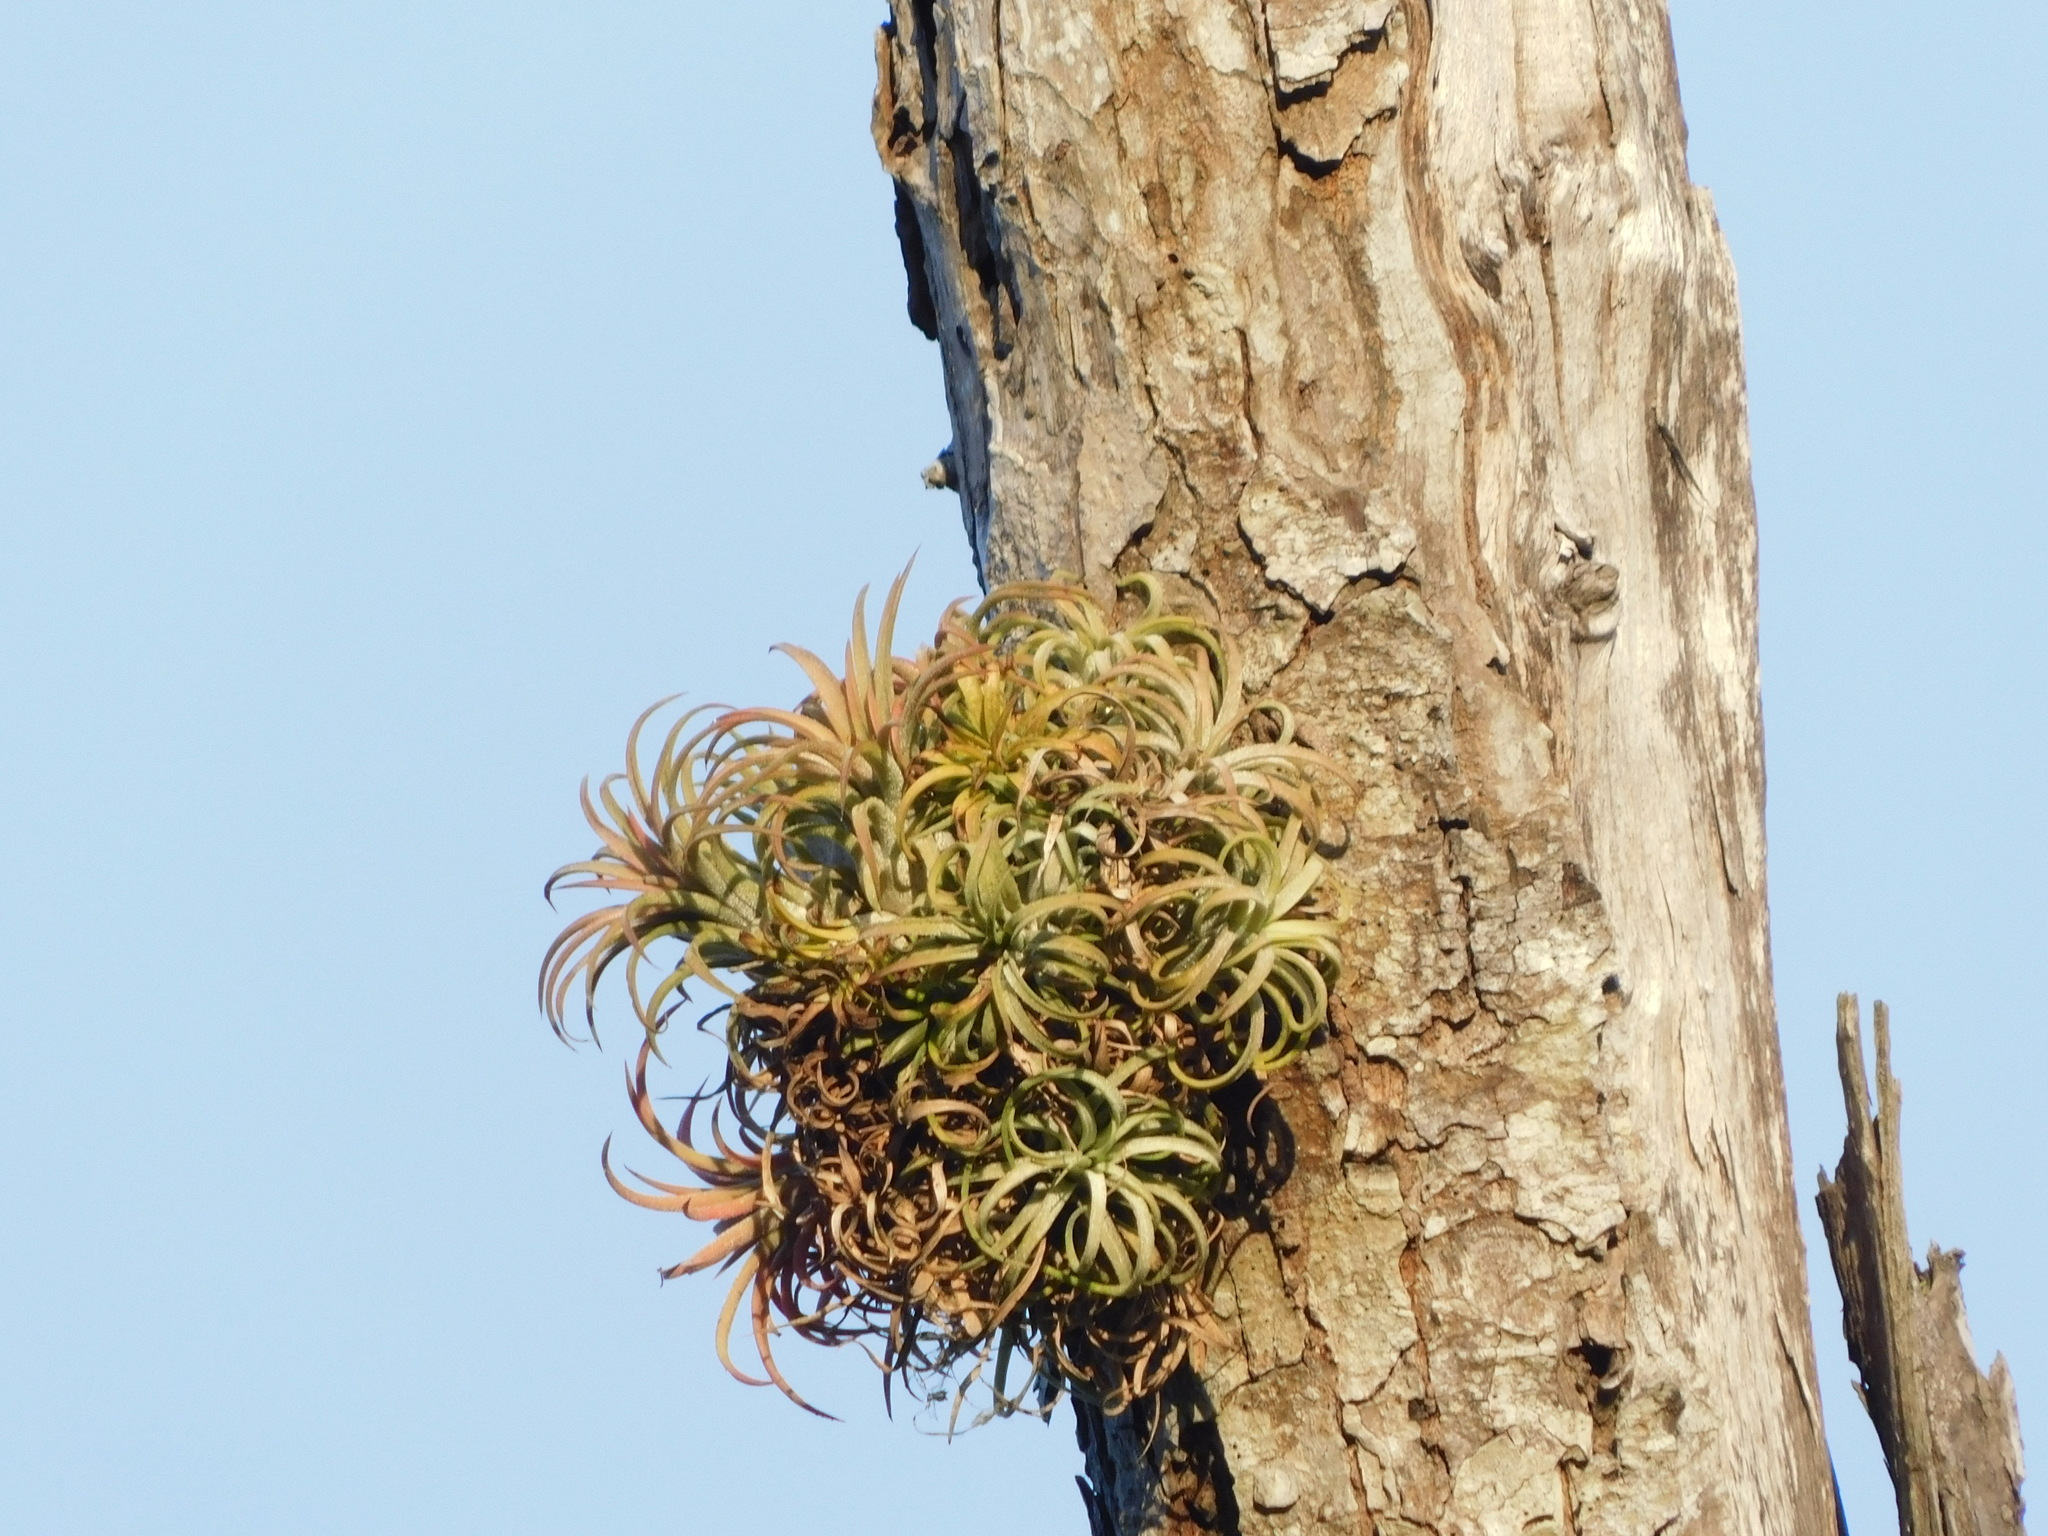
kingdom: Plantae
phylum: Tracheophyta
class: Liliopsida
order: Poales
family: Bromeliaceae
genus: Tillandsia
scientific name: Tillandsia ionantha
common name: Sky plant
